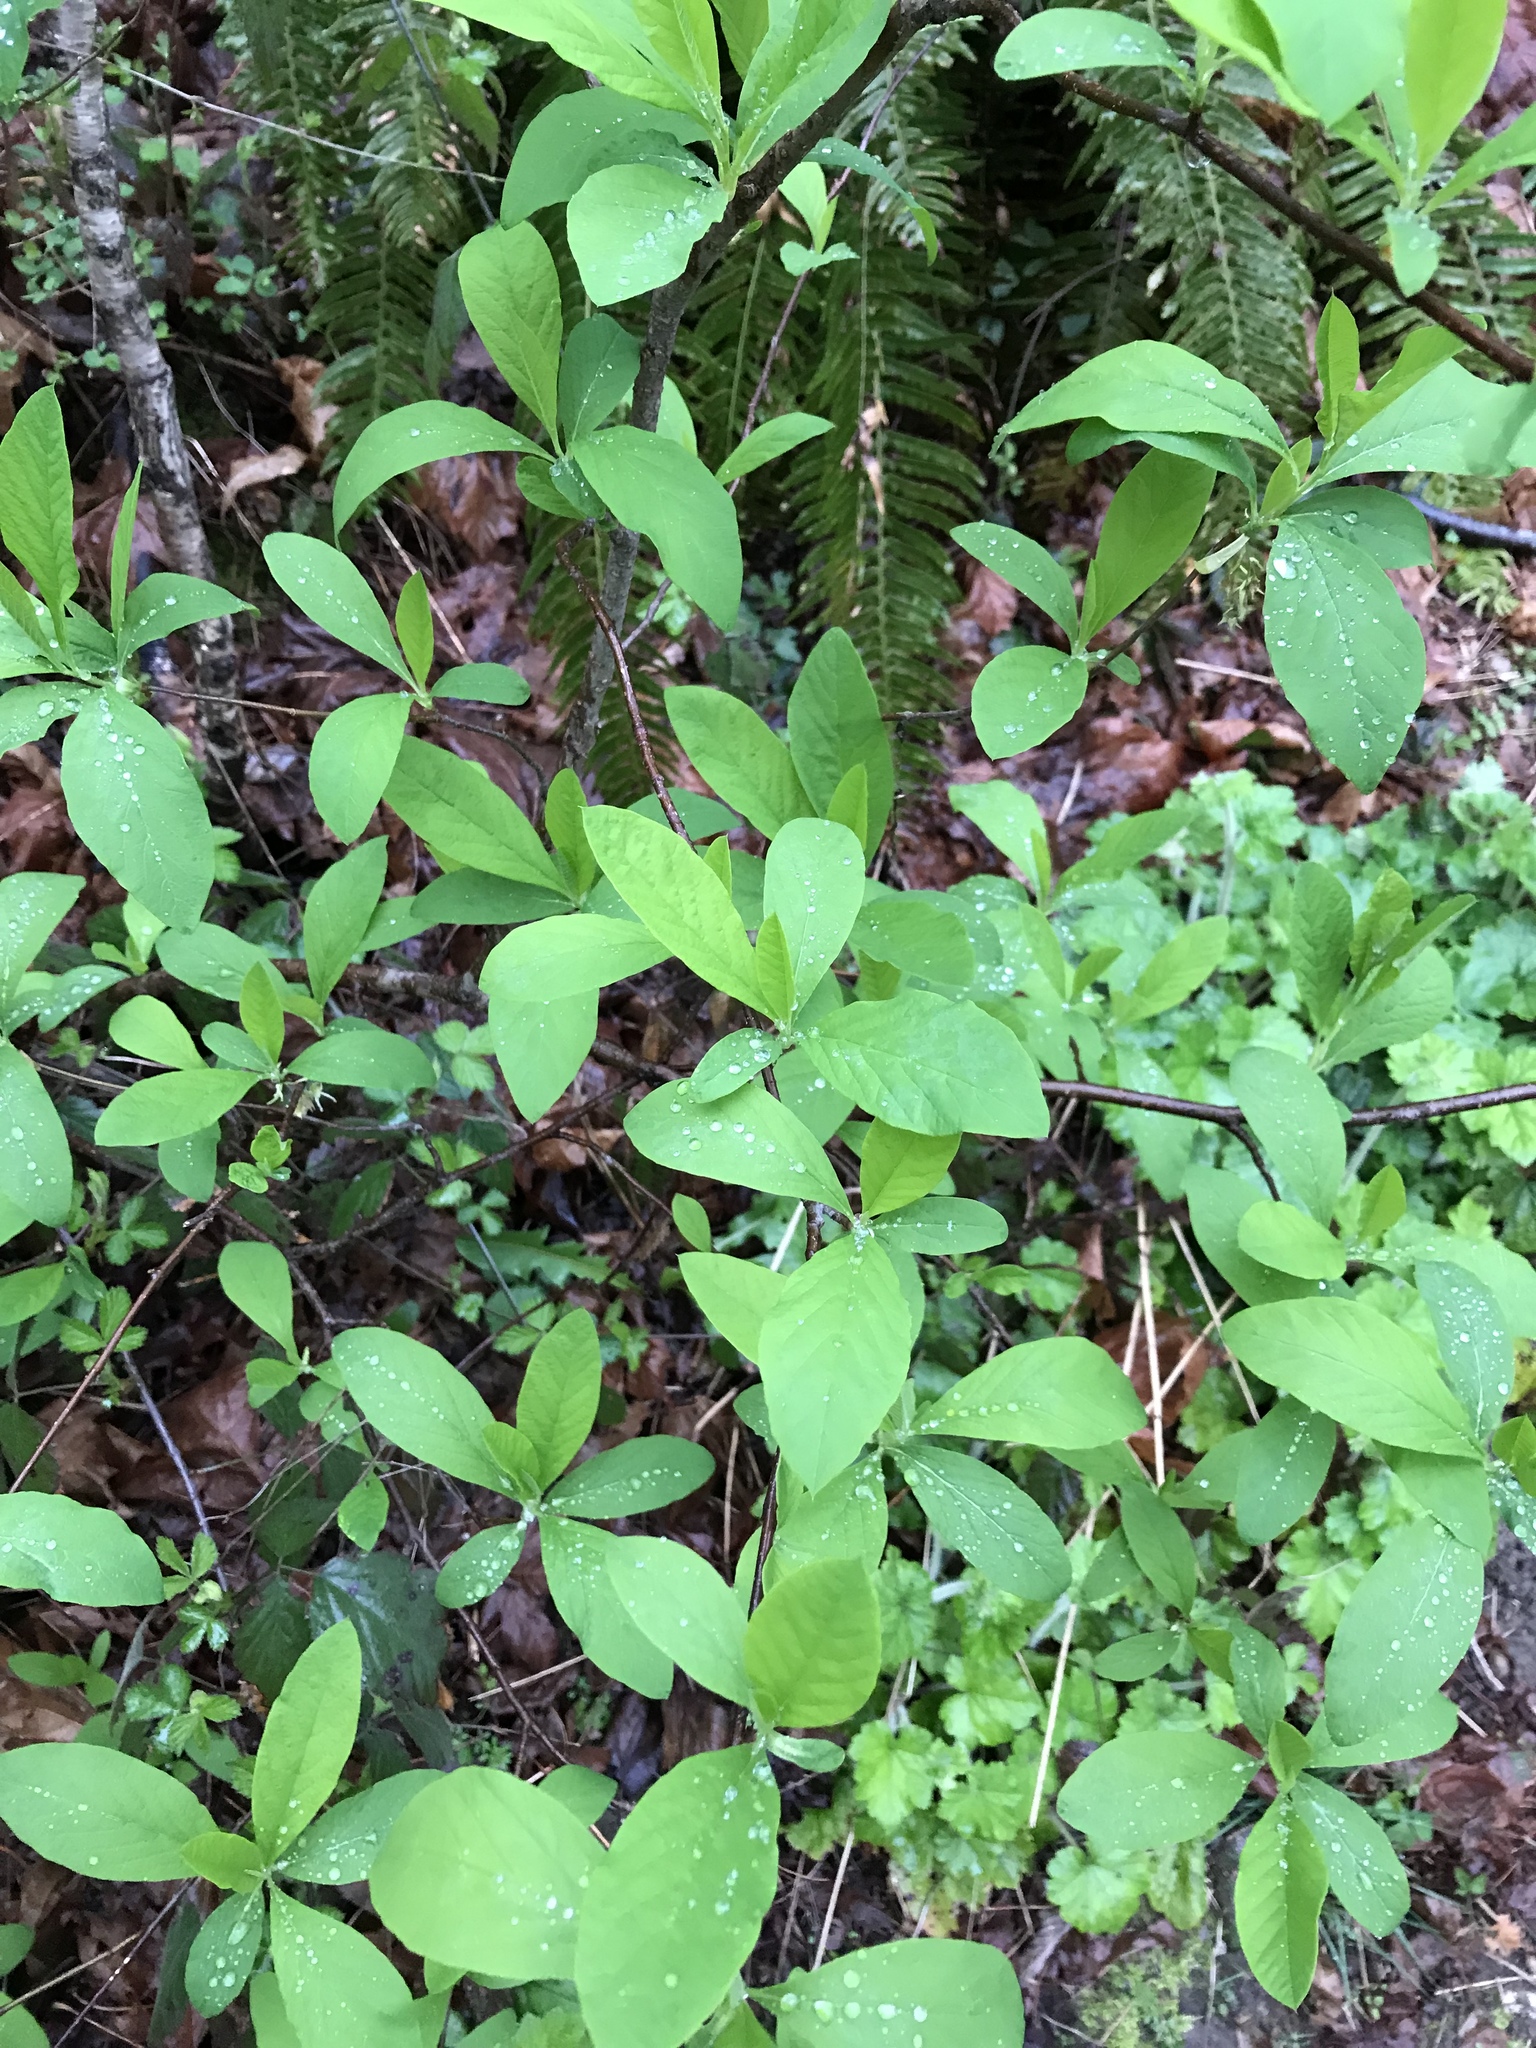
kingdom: Plantae
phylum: Tracheophyta
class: Magnoliopsida
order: Rosales
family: Rosaceae
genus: Oemleria
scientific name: Oemleria cerasiformis
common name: Osoberry
